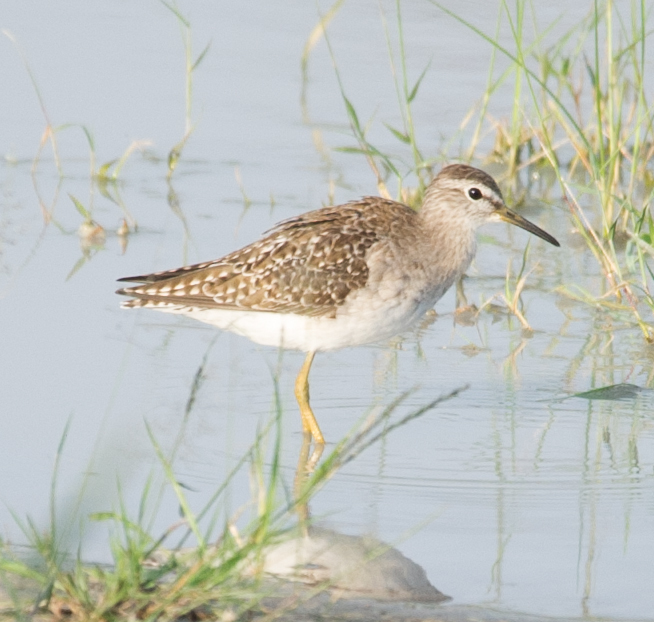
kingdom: Animalia
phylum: Chordata
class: Aves
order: Charadriiformes
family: Scolopacidae
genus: Tringa
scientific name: Tringa glareola
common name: Wood sandpiper
